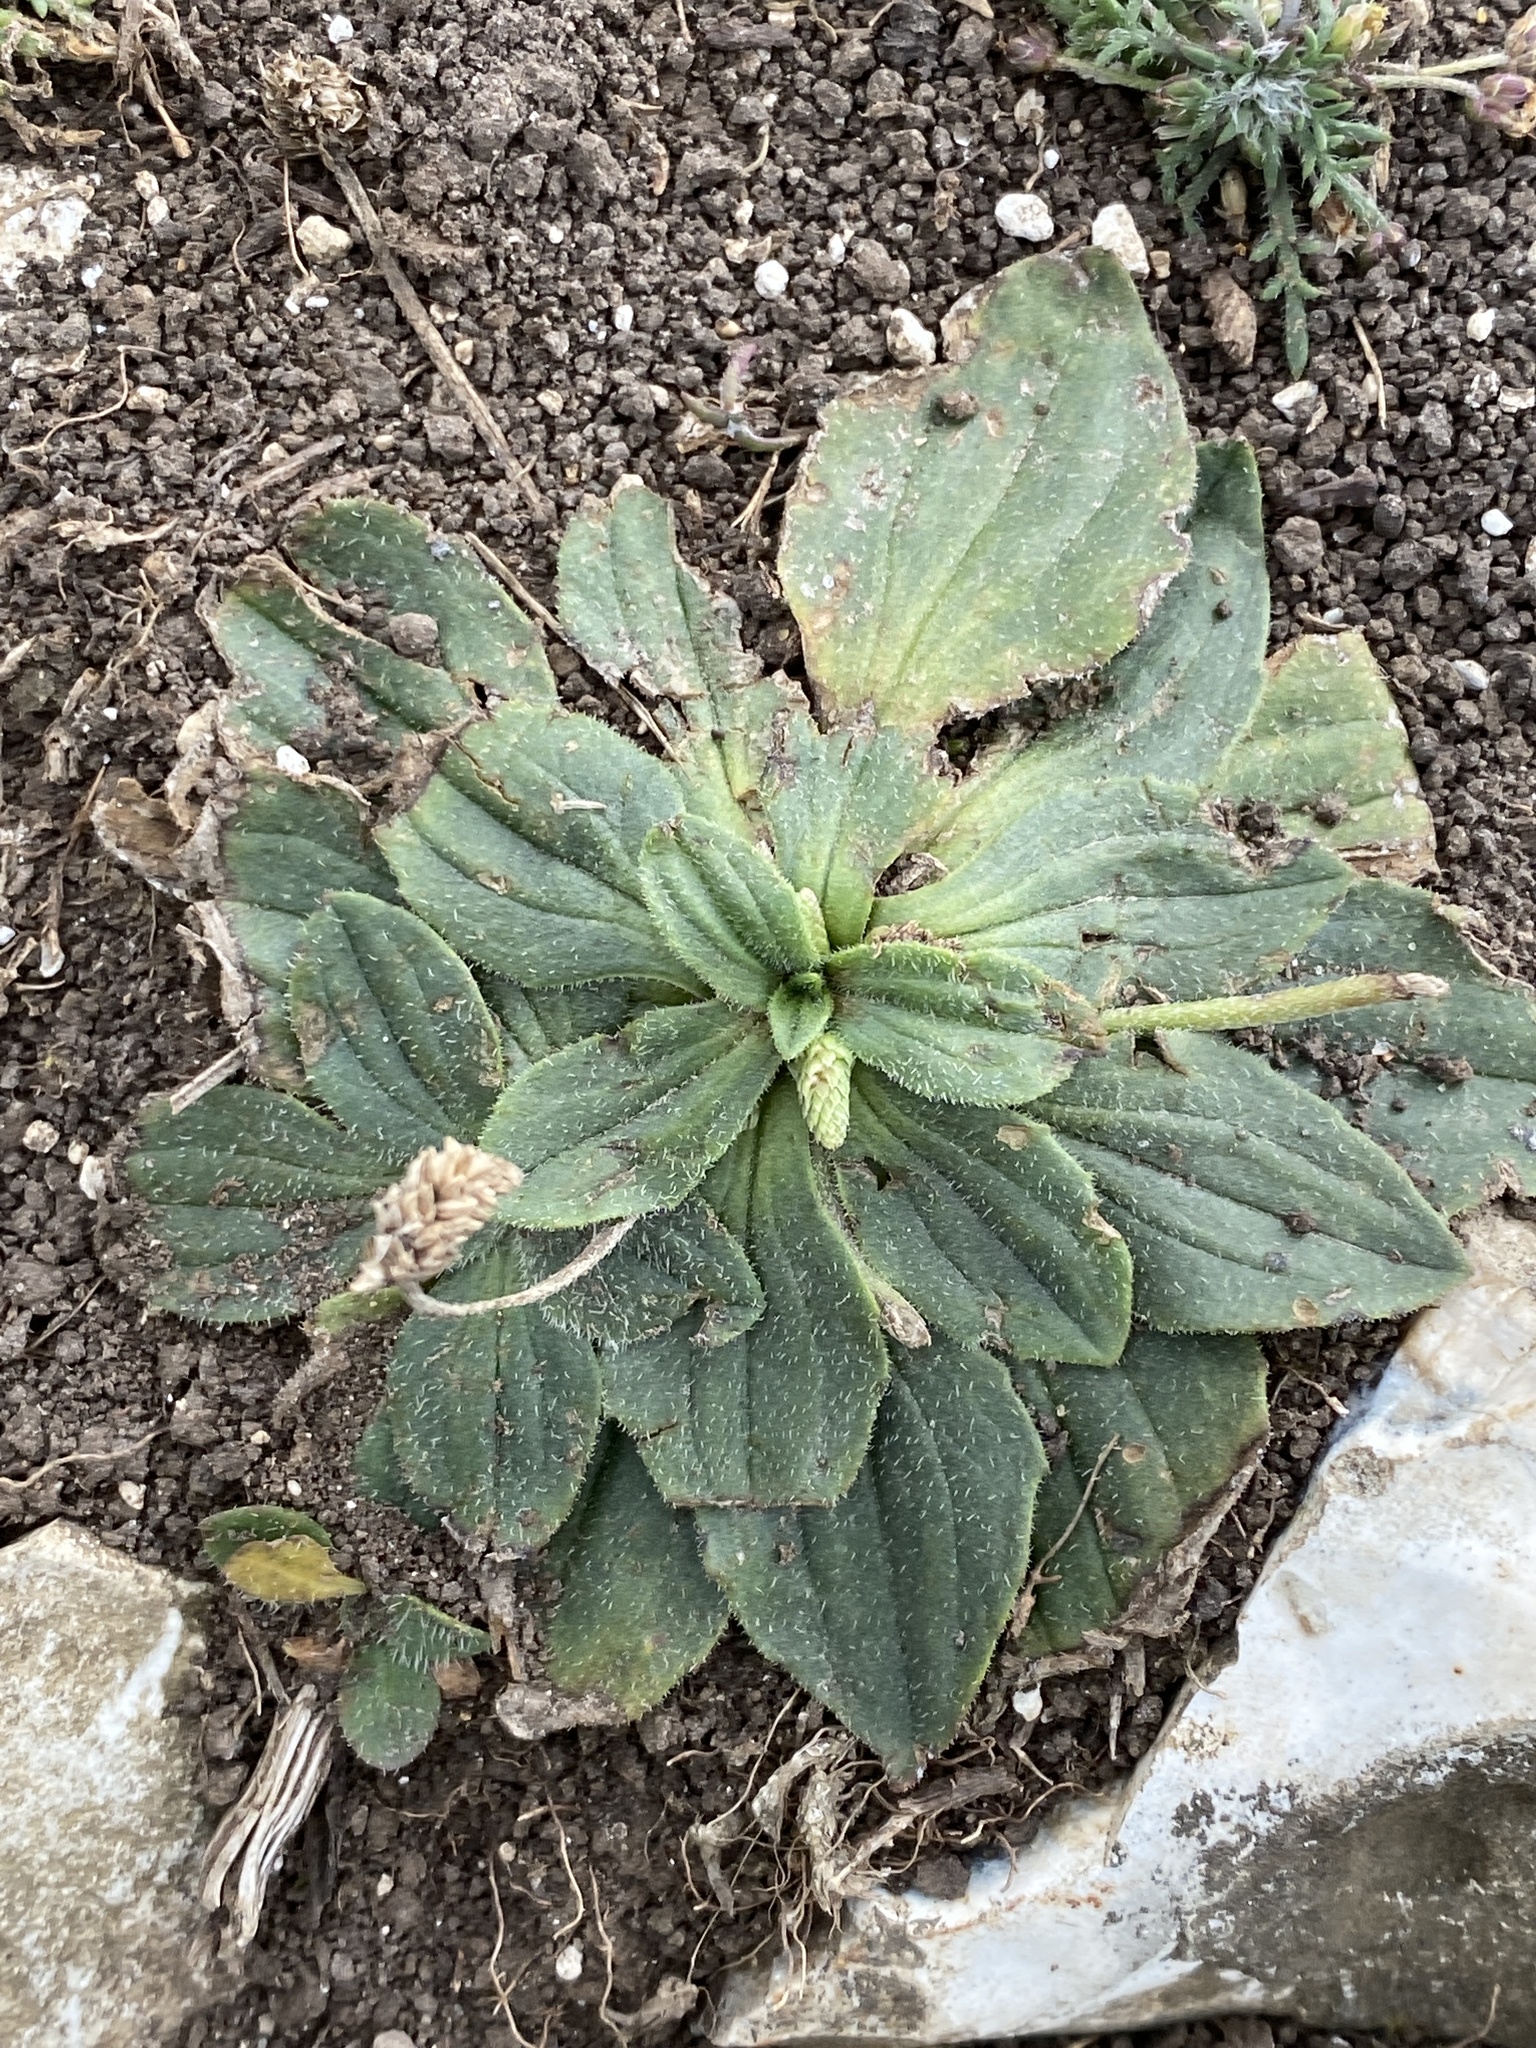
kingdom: Plantae
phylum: Tracheophyta
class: Magnoliopsida
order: Lamiales
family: Plantaginaceae
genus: Plantago
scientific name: Plantago media
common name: Hoary plantain
